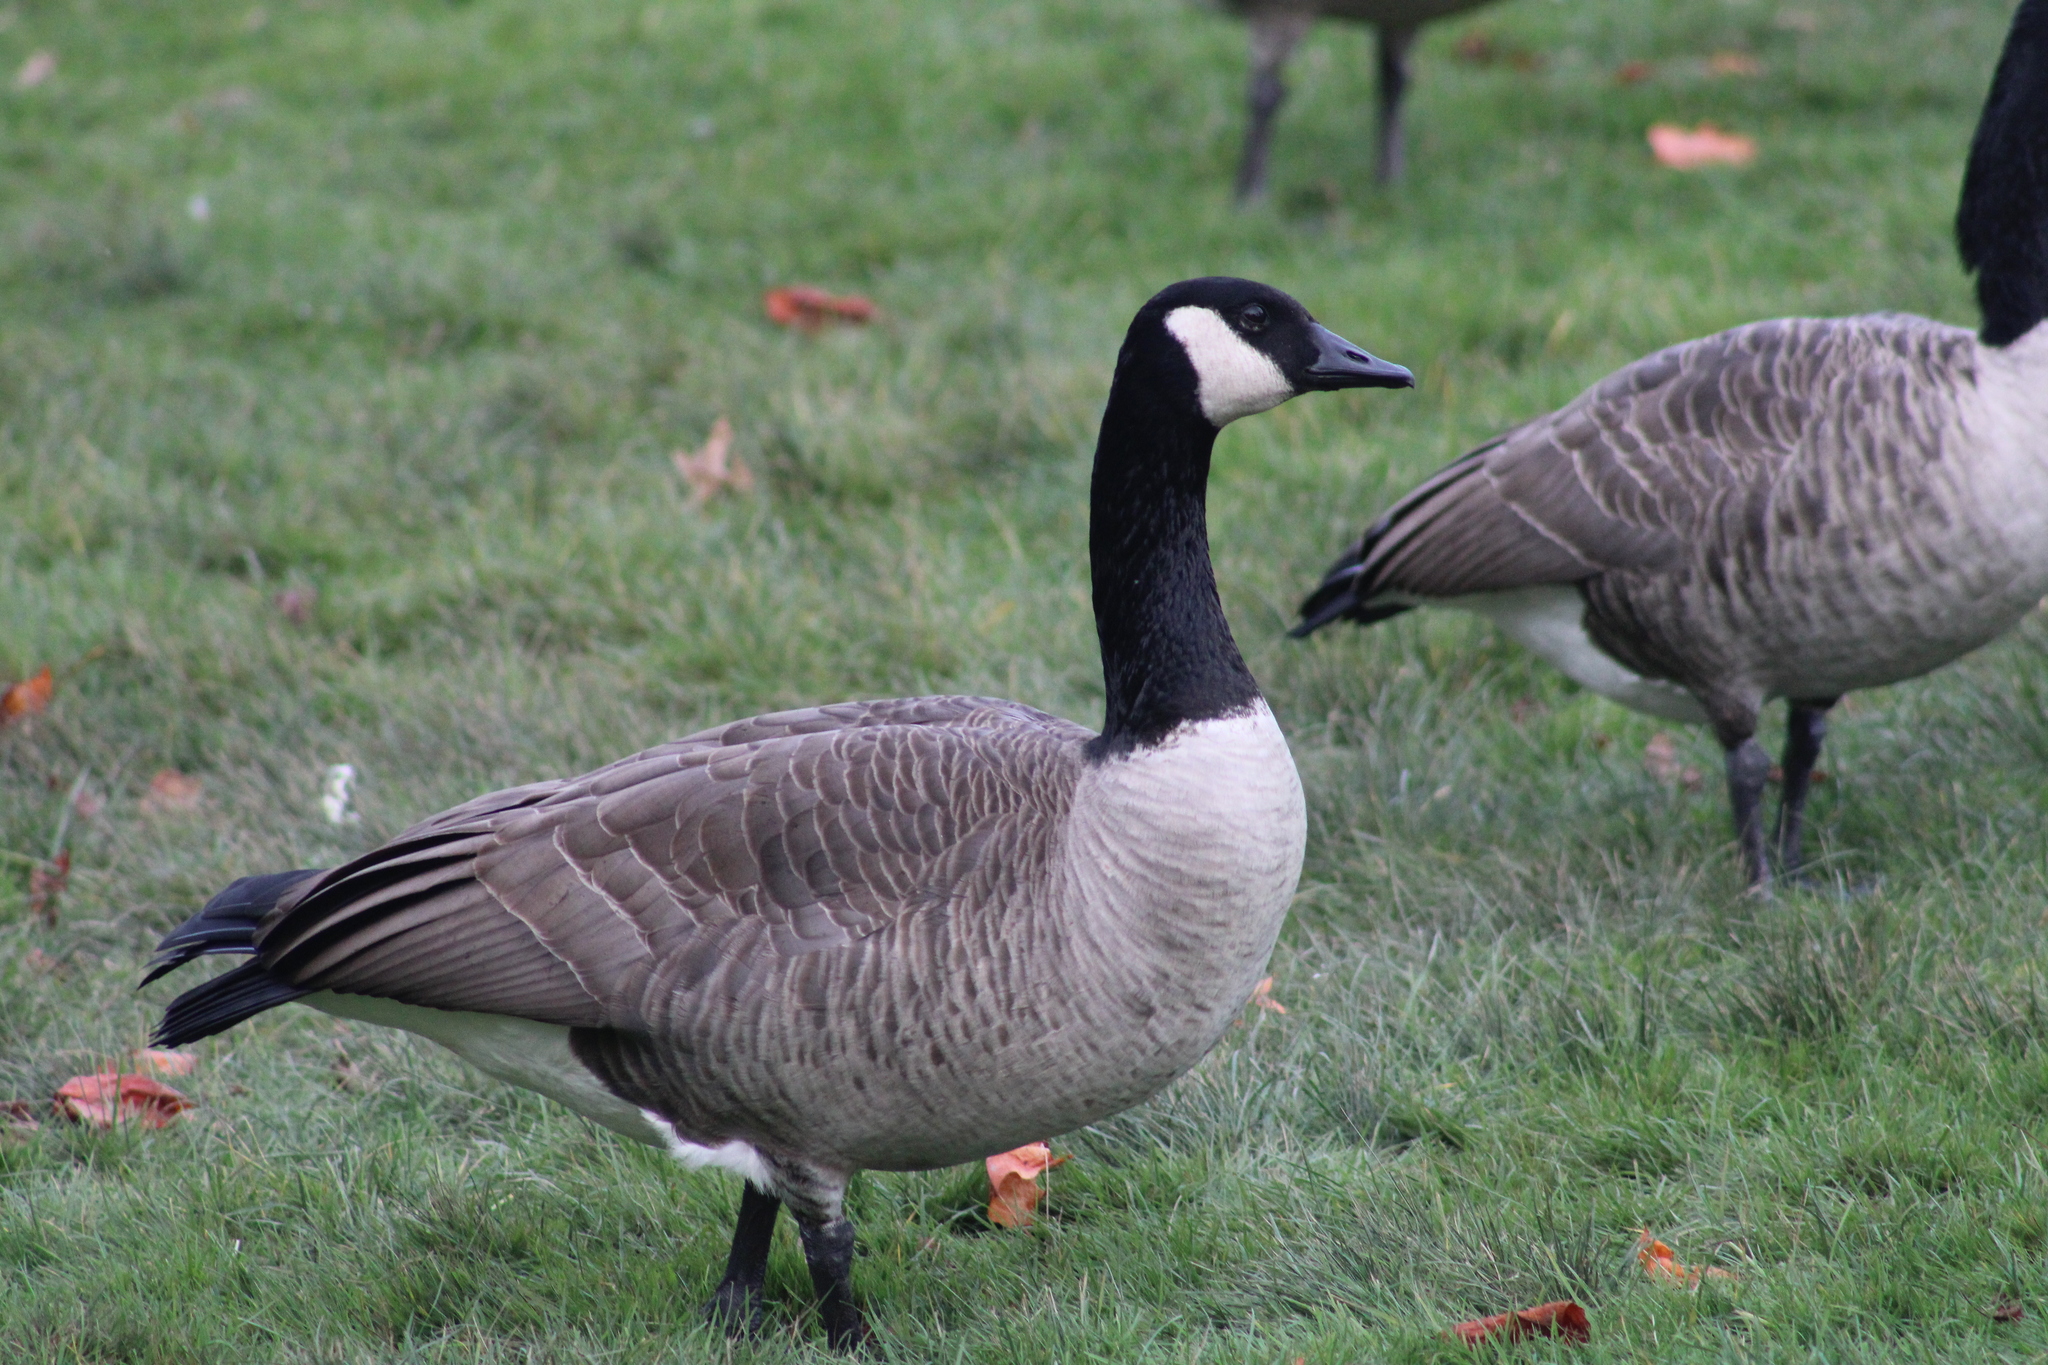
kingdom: Animalia
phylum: Chordata
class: Aves
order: Anseriformes
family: Anatidae
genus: Branta
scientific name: Branta canadensis
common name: Canada goose
